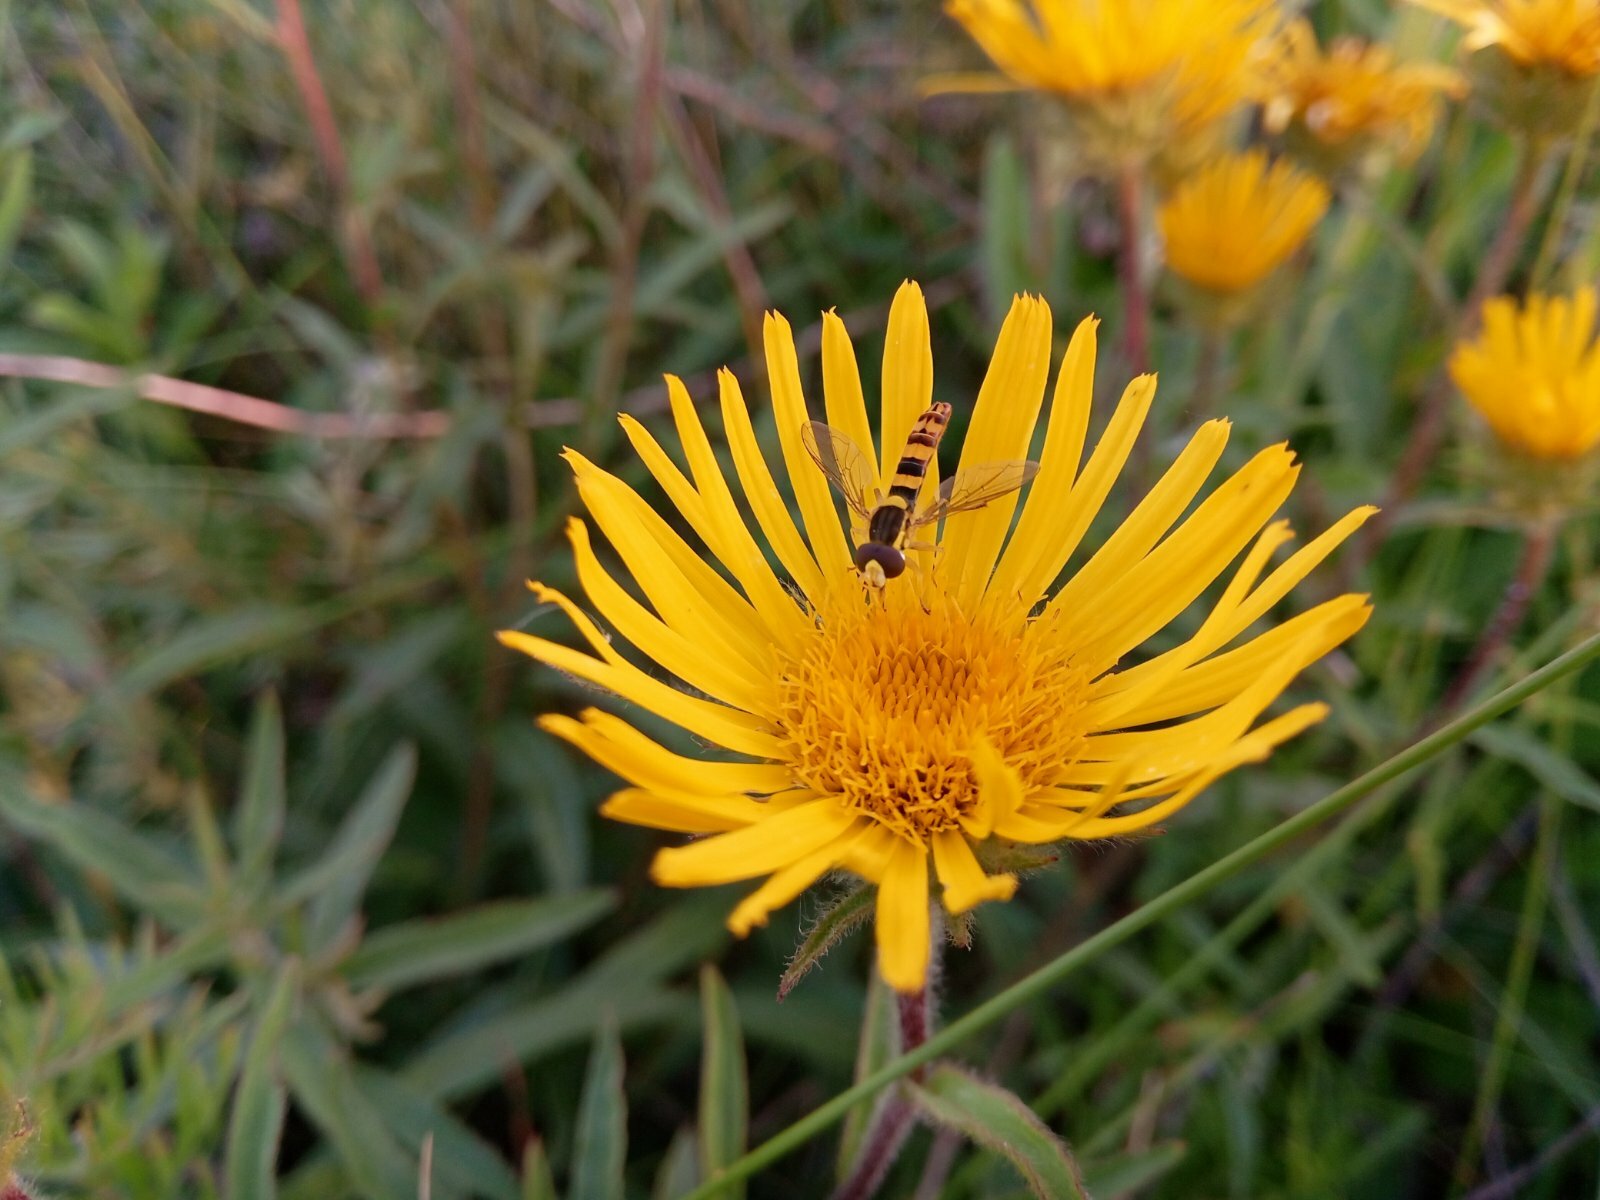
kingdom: Plantae
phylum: Tracheophyta
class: Magnoliopsida
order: Asterales
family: Asteraceae
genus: Pentanema
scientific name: Pentanema hirtum
